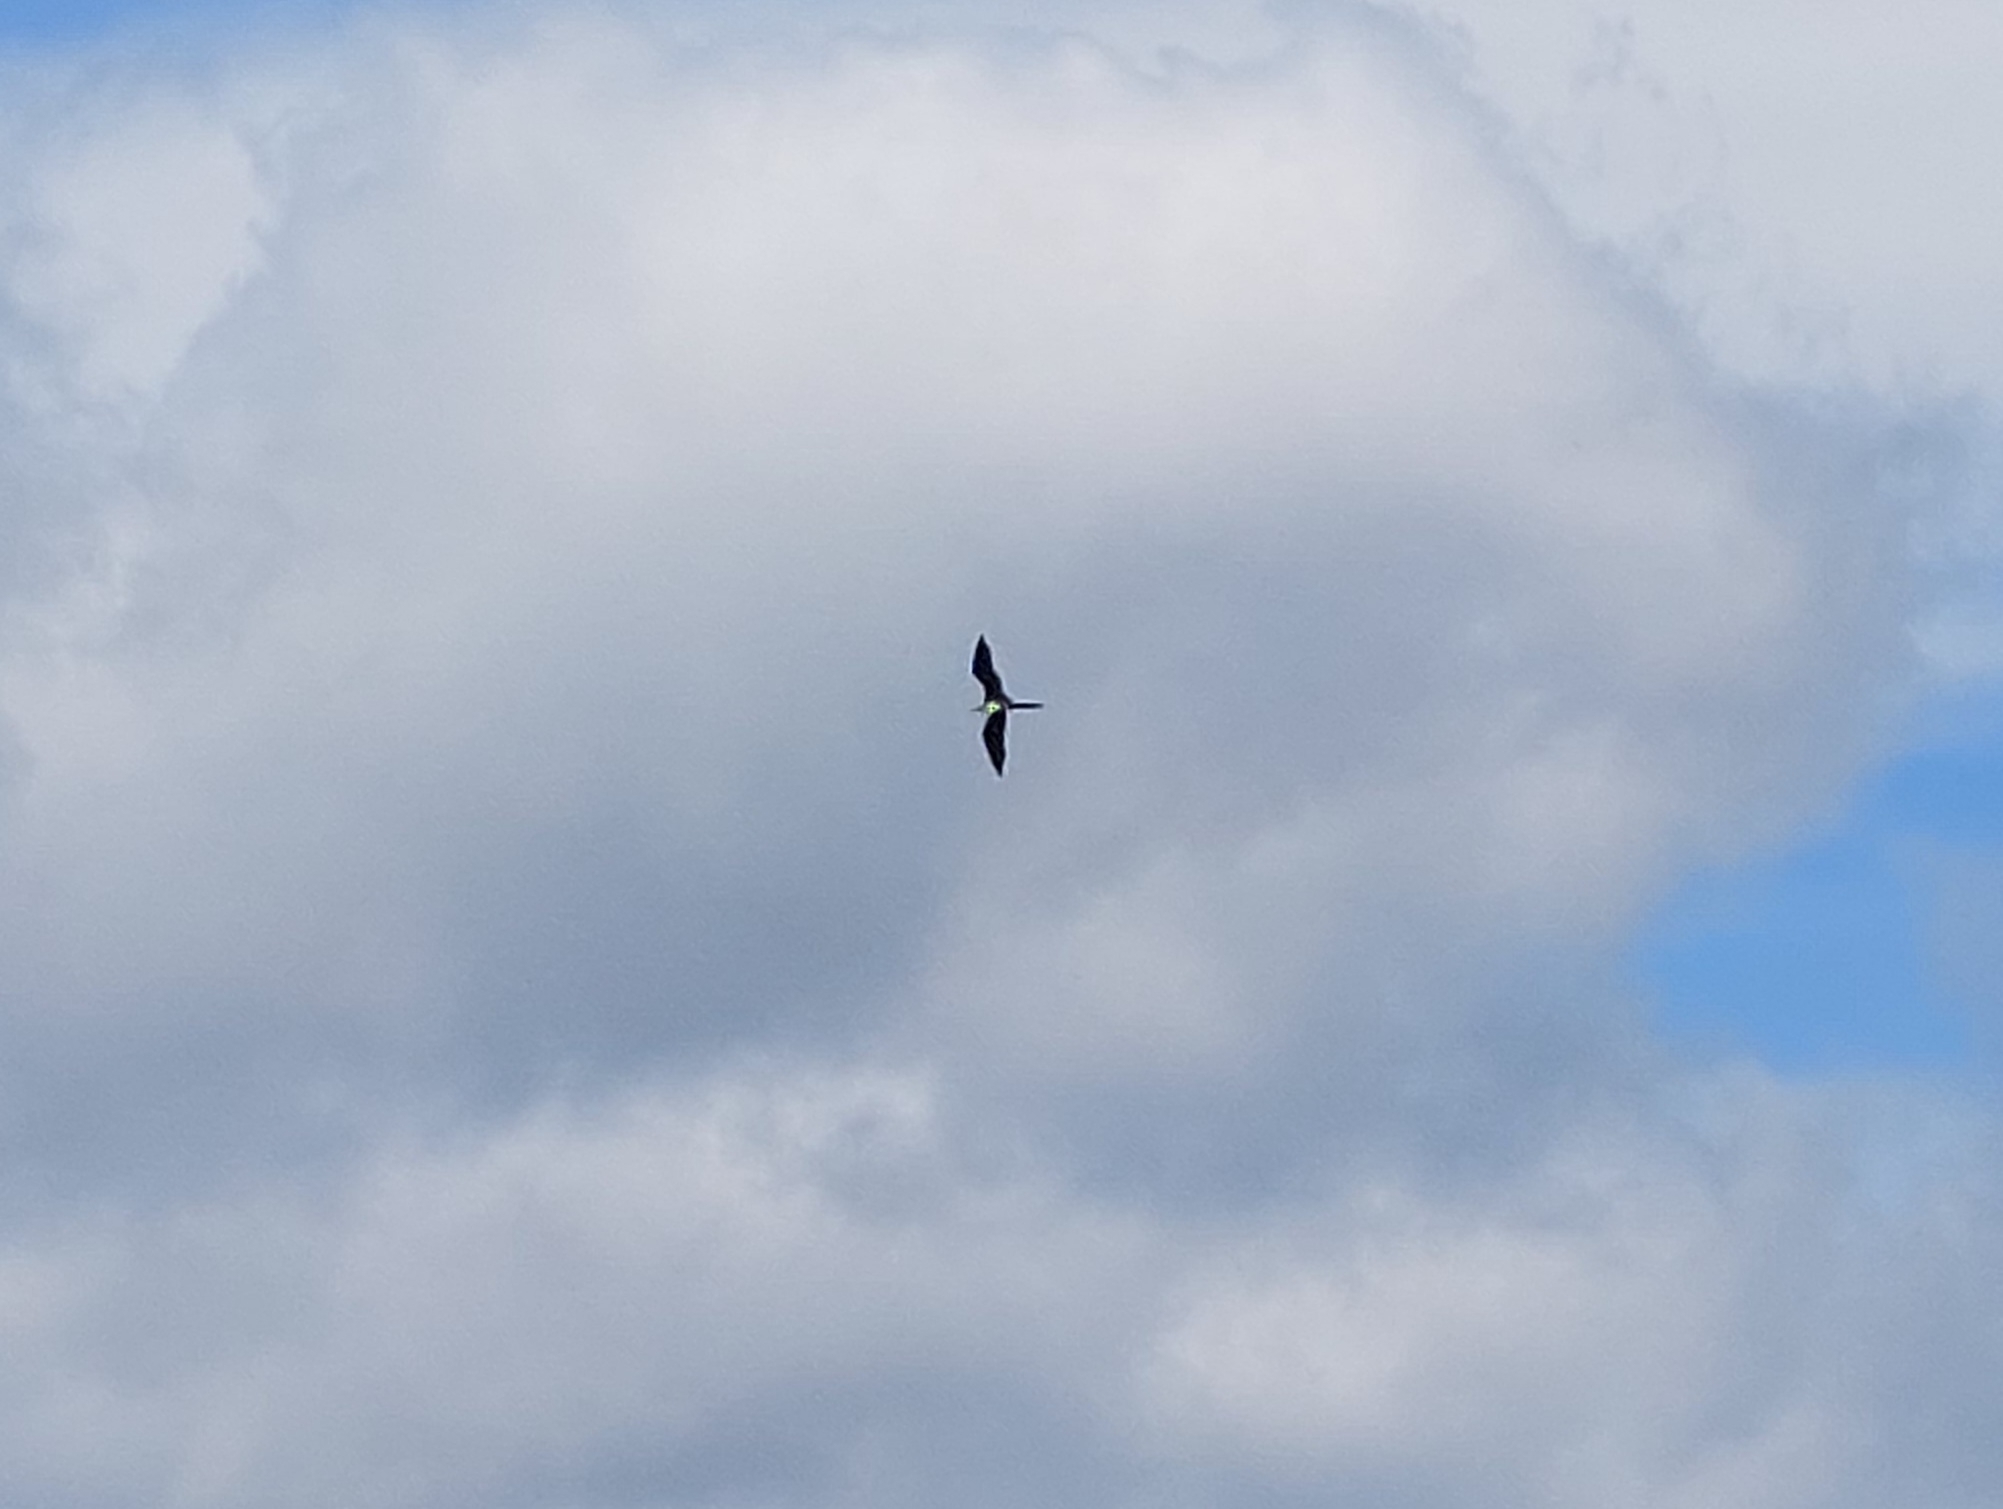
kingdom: Animalia
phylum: Chordata
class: Aves
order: Suliformes
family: Fregatidae
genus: Fregata
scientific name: Fregata magnificens
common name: Magnificent frigatebird
